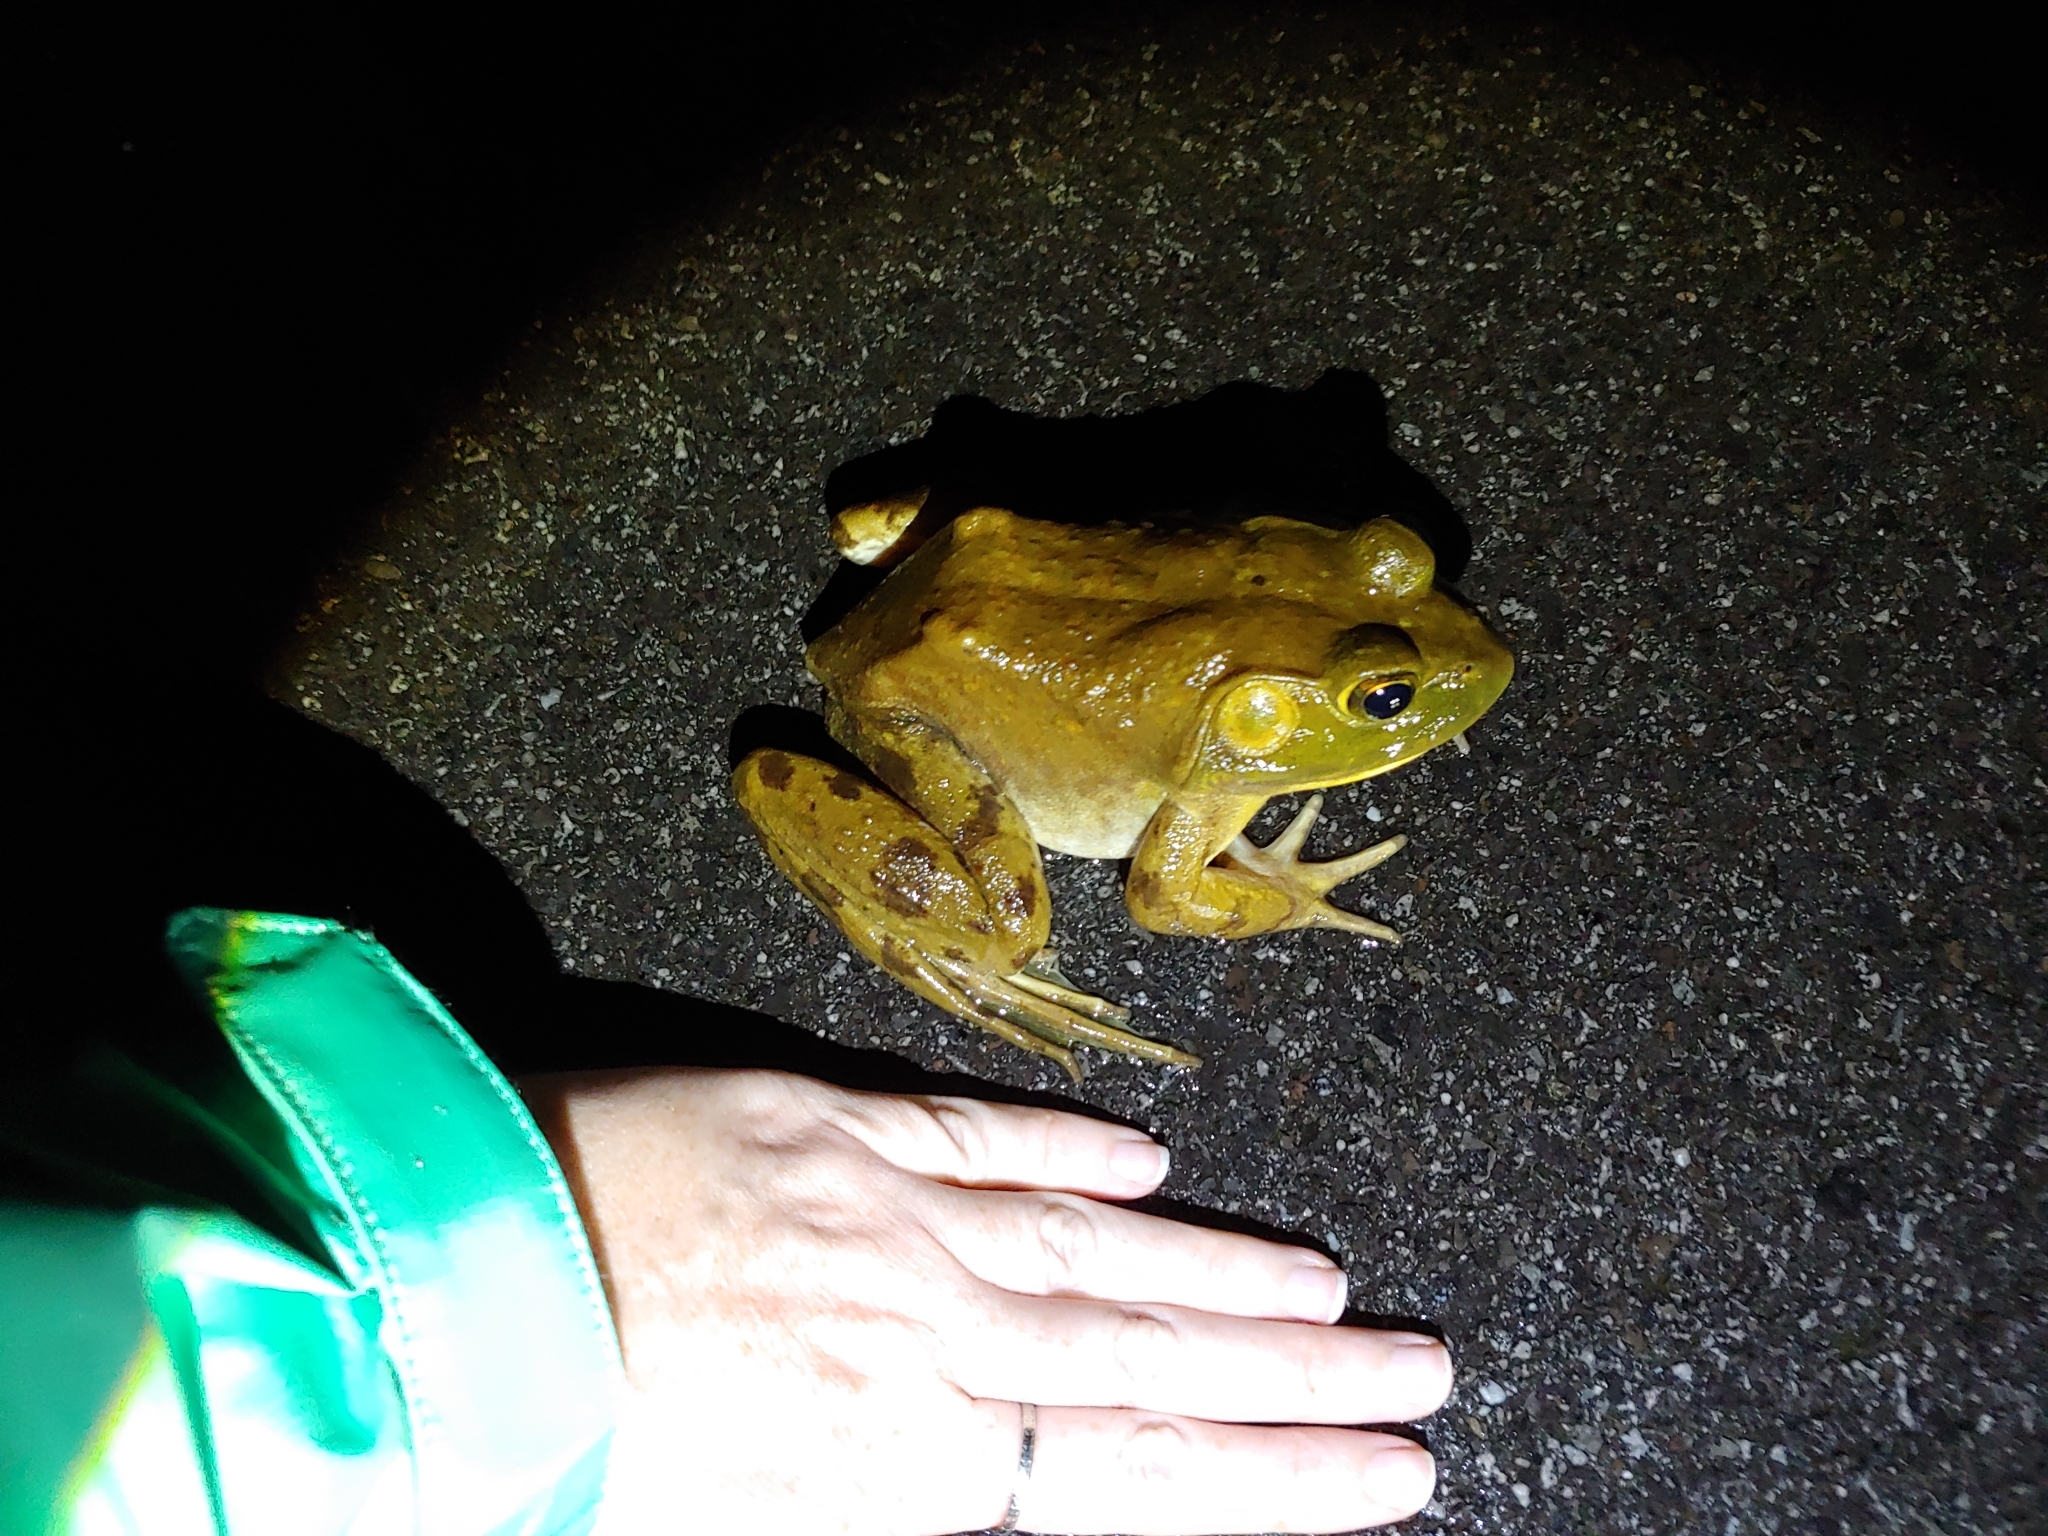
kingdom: Animalia
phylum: Chordata
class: Amphibia
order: Anura
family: Ranidae
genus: Lithobates
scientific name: Lithobates catesbeianus
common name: American bullfrog
